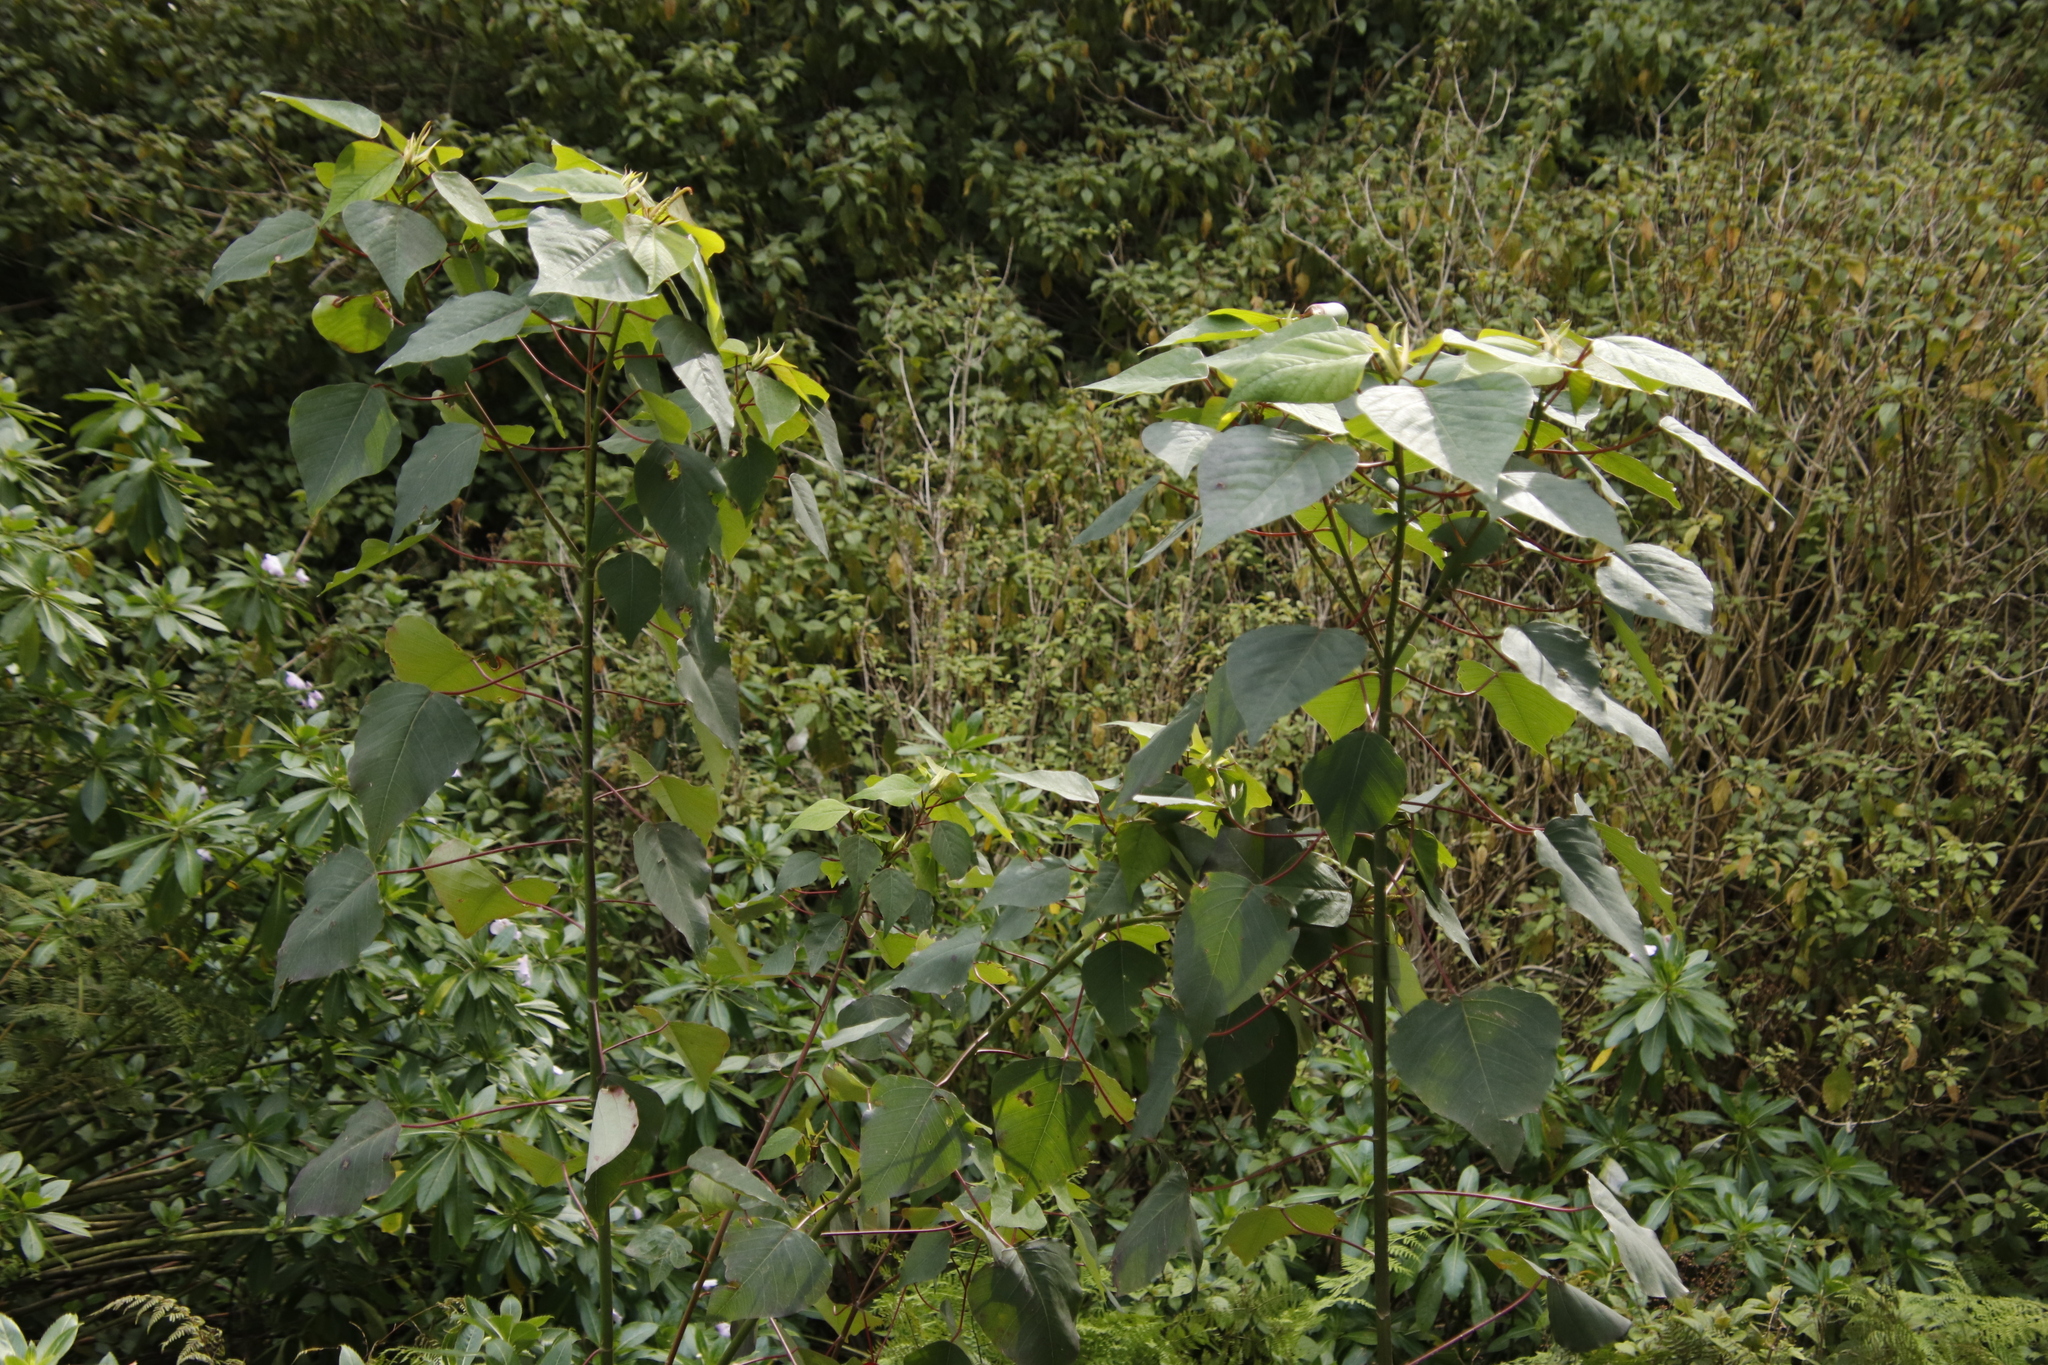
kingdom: Plantae
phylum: Tracheophyta
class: Magnoliopsida
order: Malpighiales
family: Euphorbiaceae
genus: Homalanthus
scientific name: Homalanthus populifolius
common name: Queensland poplar
